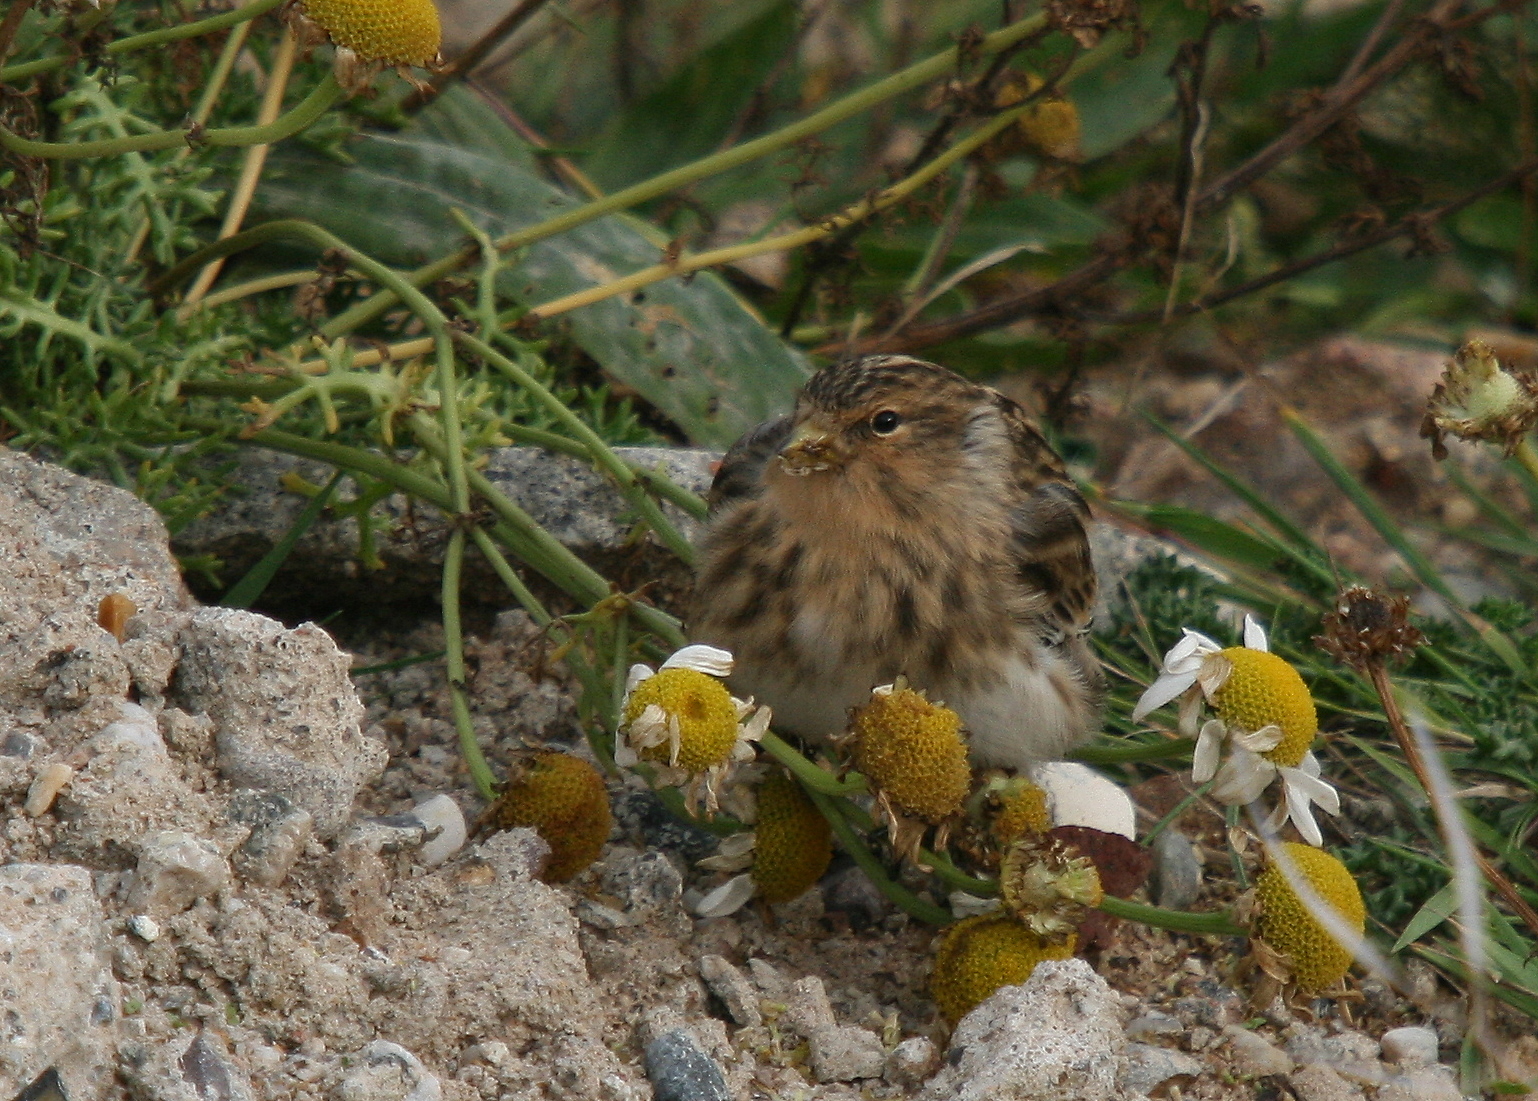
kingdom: Animalia
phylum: Chordata
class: Aves
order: Passeriformes
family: Fringillidae
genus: Linaria
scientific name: Linaria flavirostris
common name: Twite
